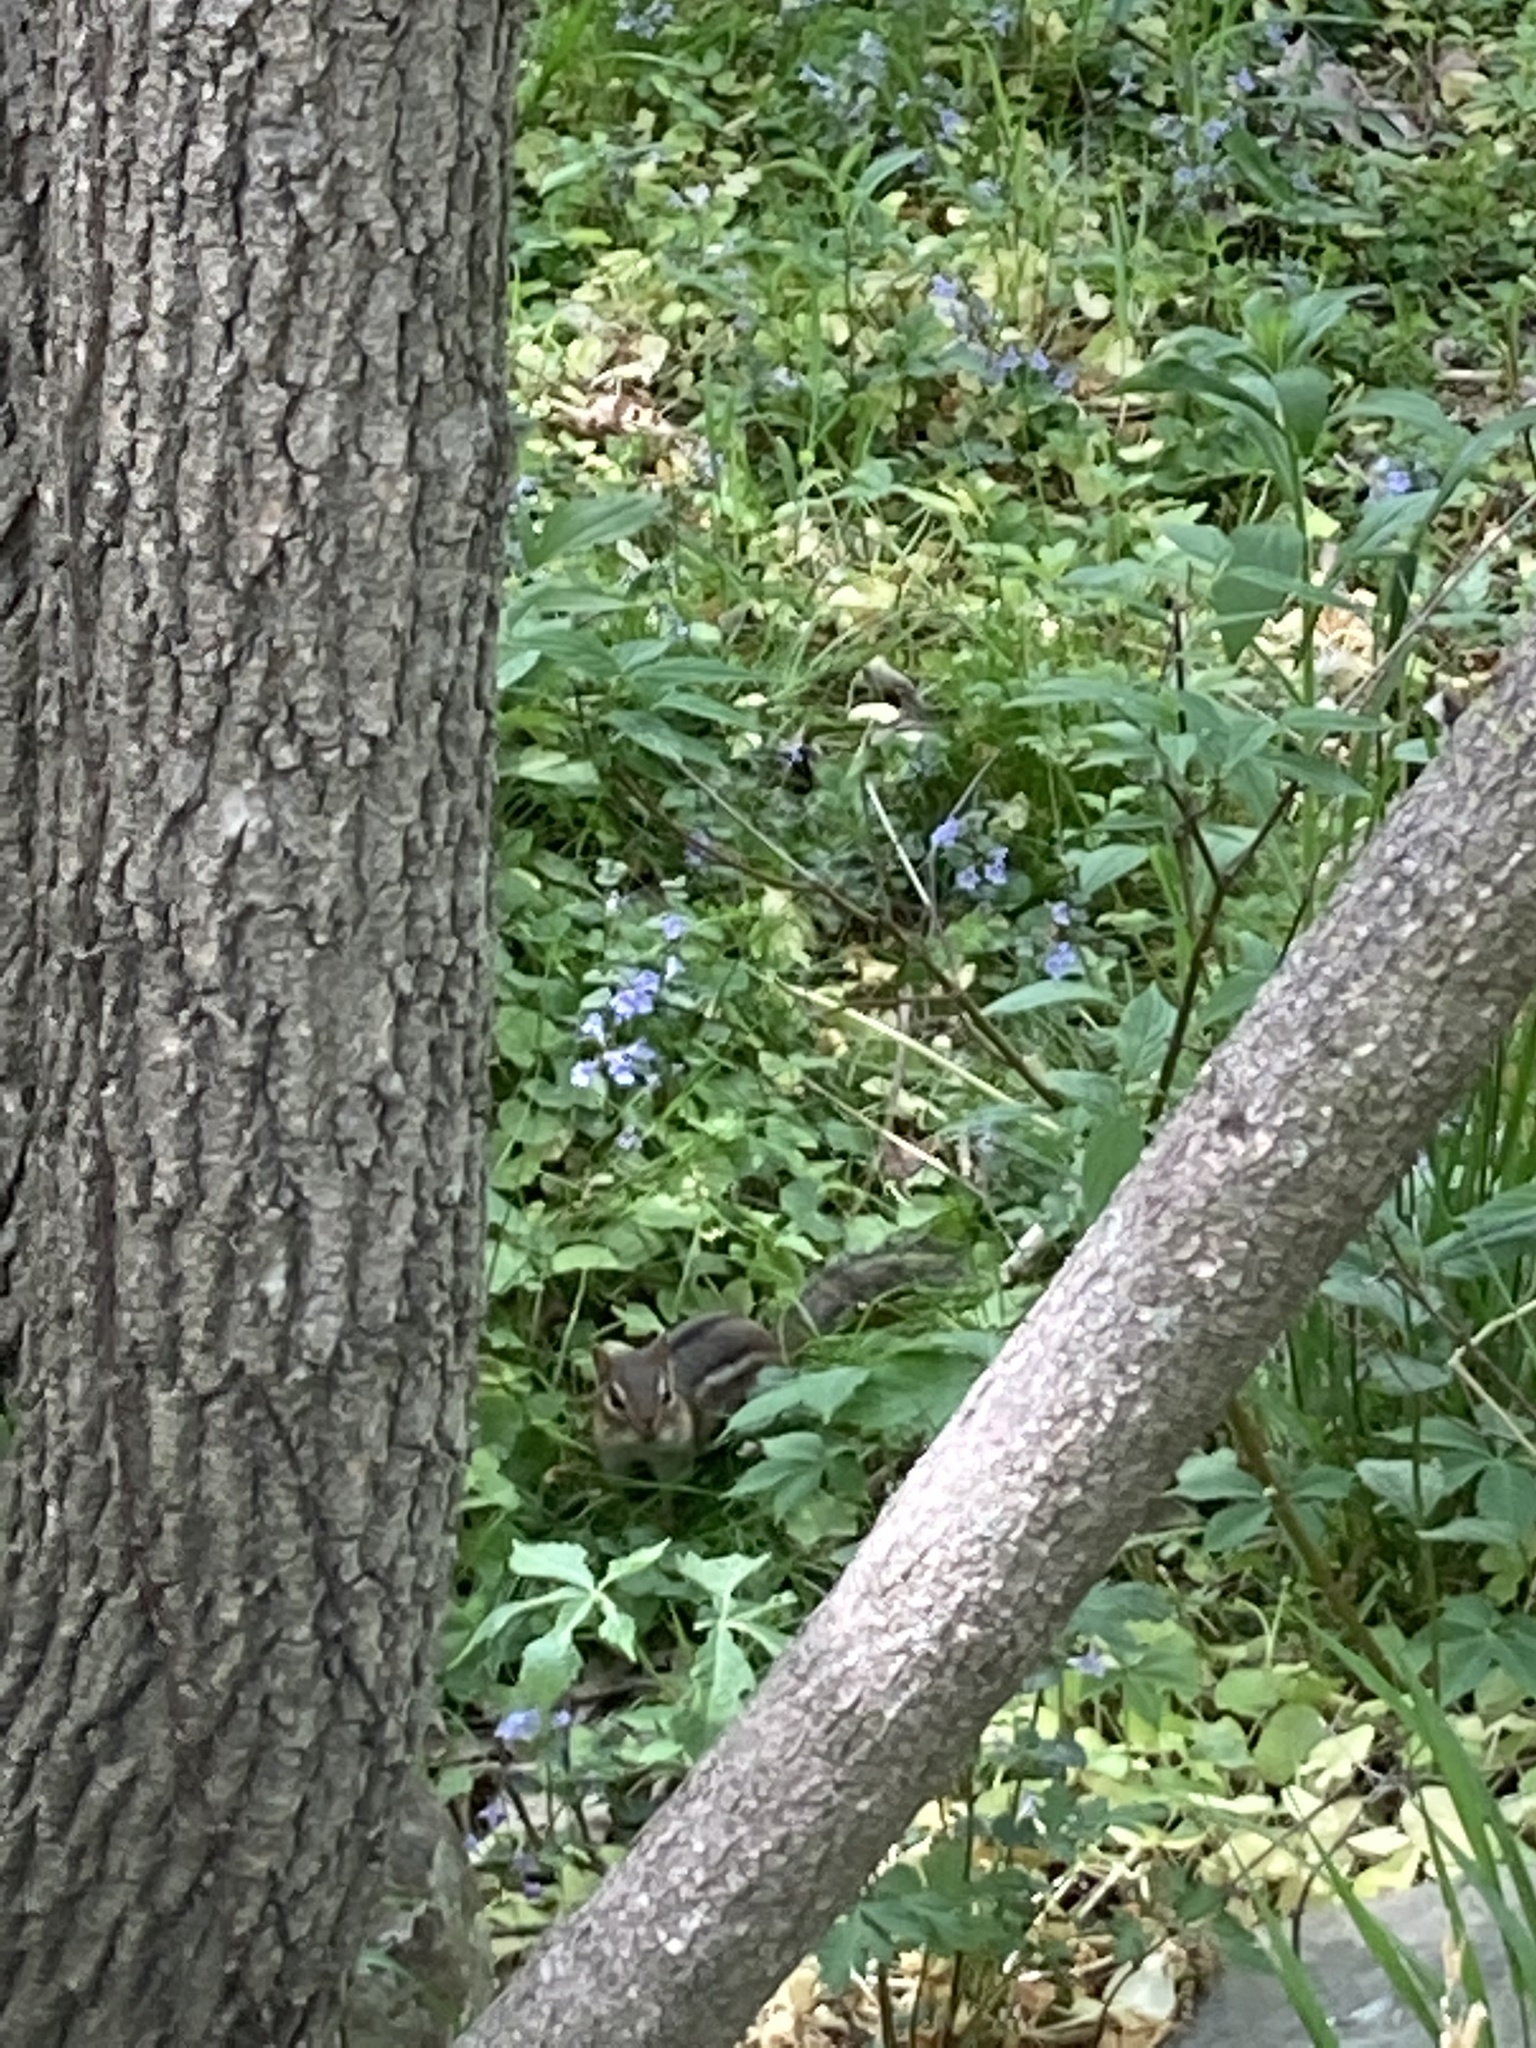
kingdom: Animalia
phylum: Chordata
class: Mammalia
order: Rodentia
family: Sciuridae
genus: Tamias
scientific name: Tamias striatus
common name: Eastern chipmunk
